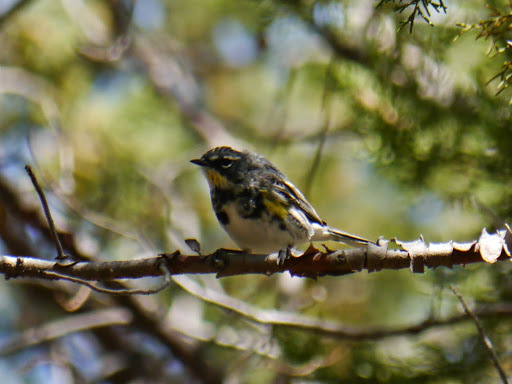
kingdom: Animalia
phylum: Chordata
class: Aves
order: Passeriformes
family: Parulidae
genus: Setophaga
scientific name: Setophaga coronata
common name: Myrtle warbler
